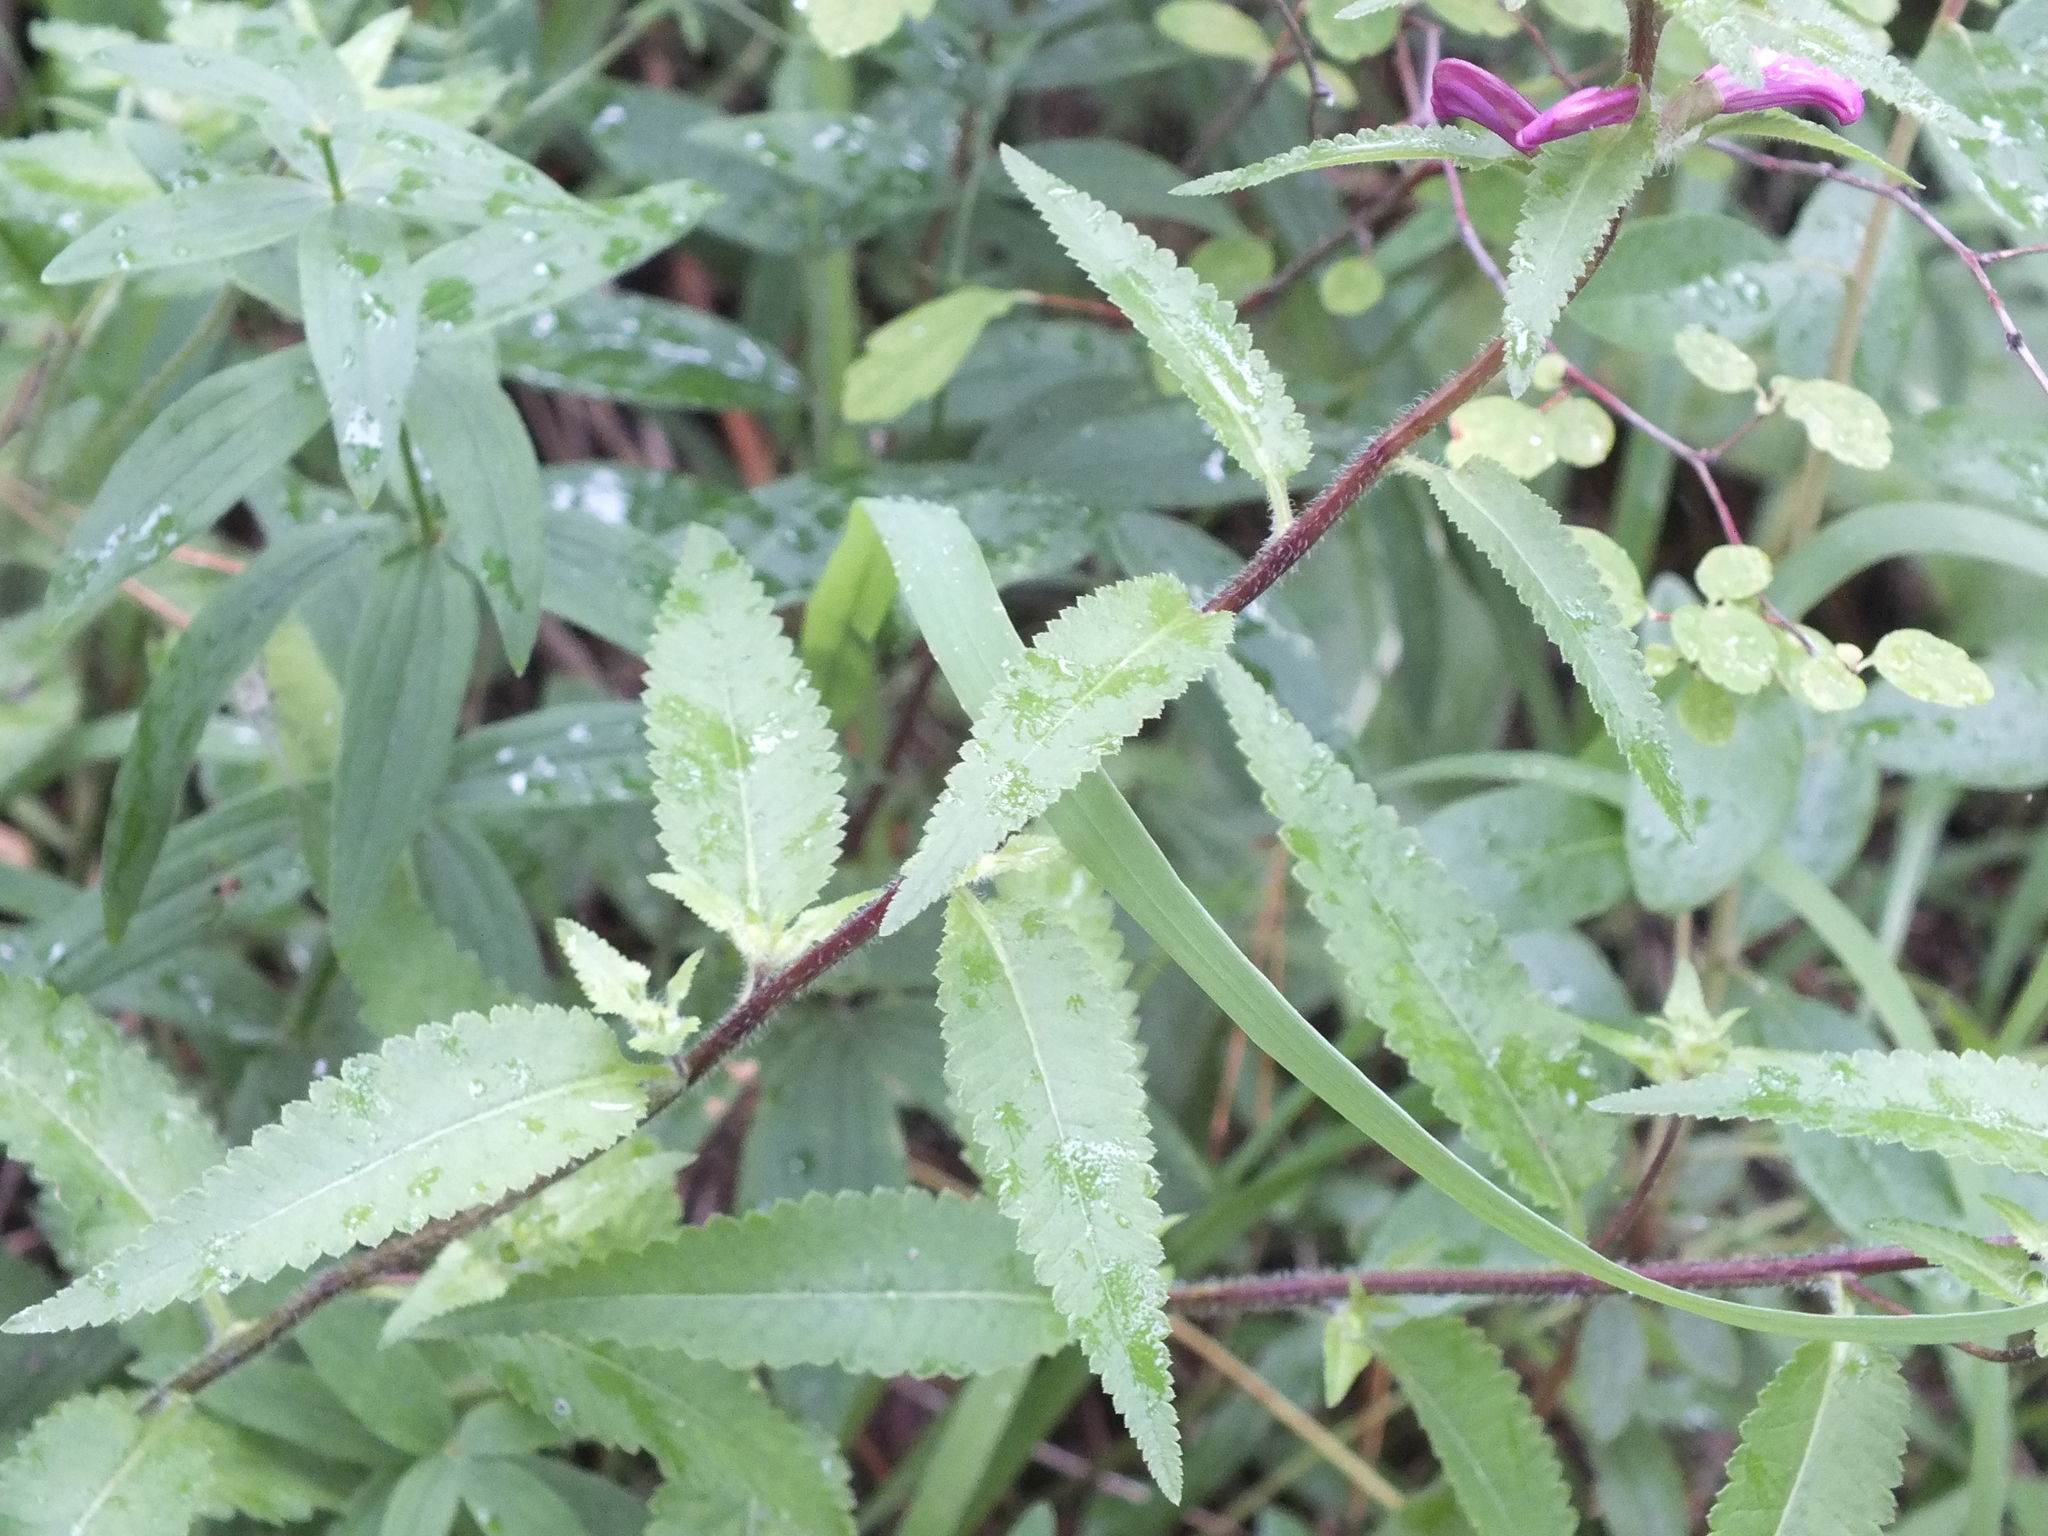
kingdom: Plantae
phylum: Tracheophyta
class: Magnoliopsida
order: Lamiales
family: Orobanchaceae
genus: Pedicularis
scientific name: Pedicularis resupinata
